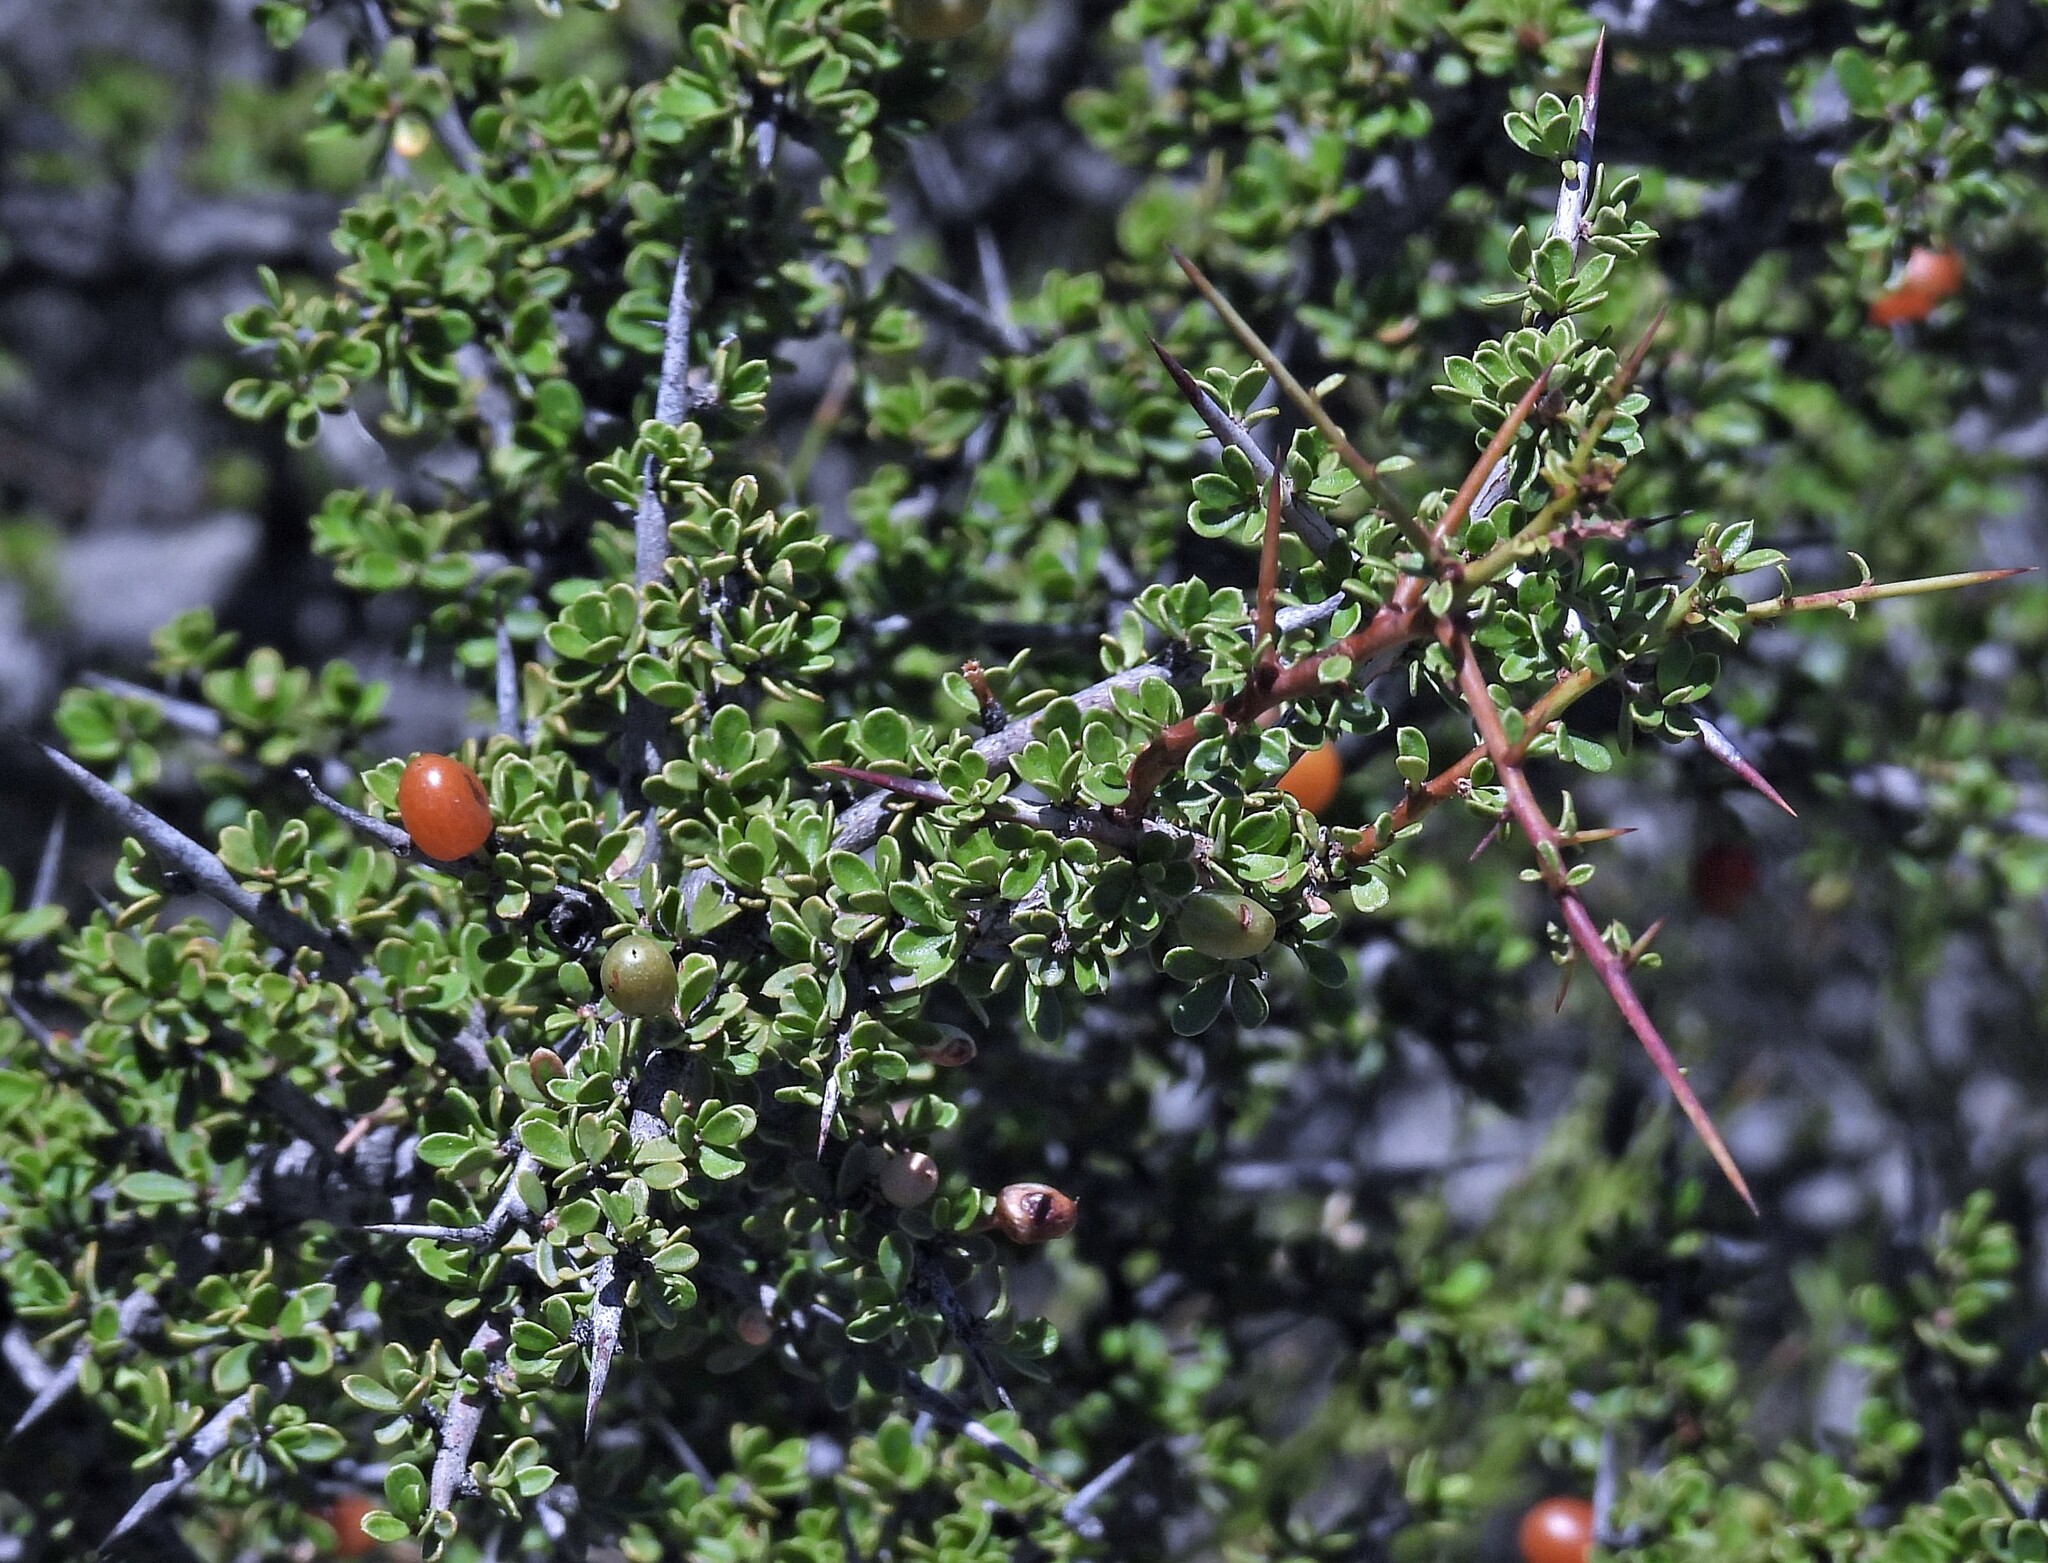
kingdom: Plantae
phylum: Tracheophyta
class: Magnoliopsida
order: Rosales
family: Rhamnaceae
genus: Condalia
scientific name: Condalia microphylla
